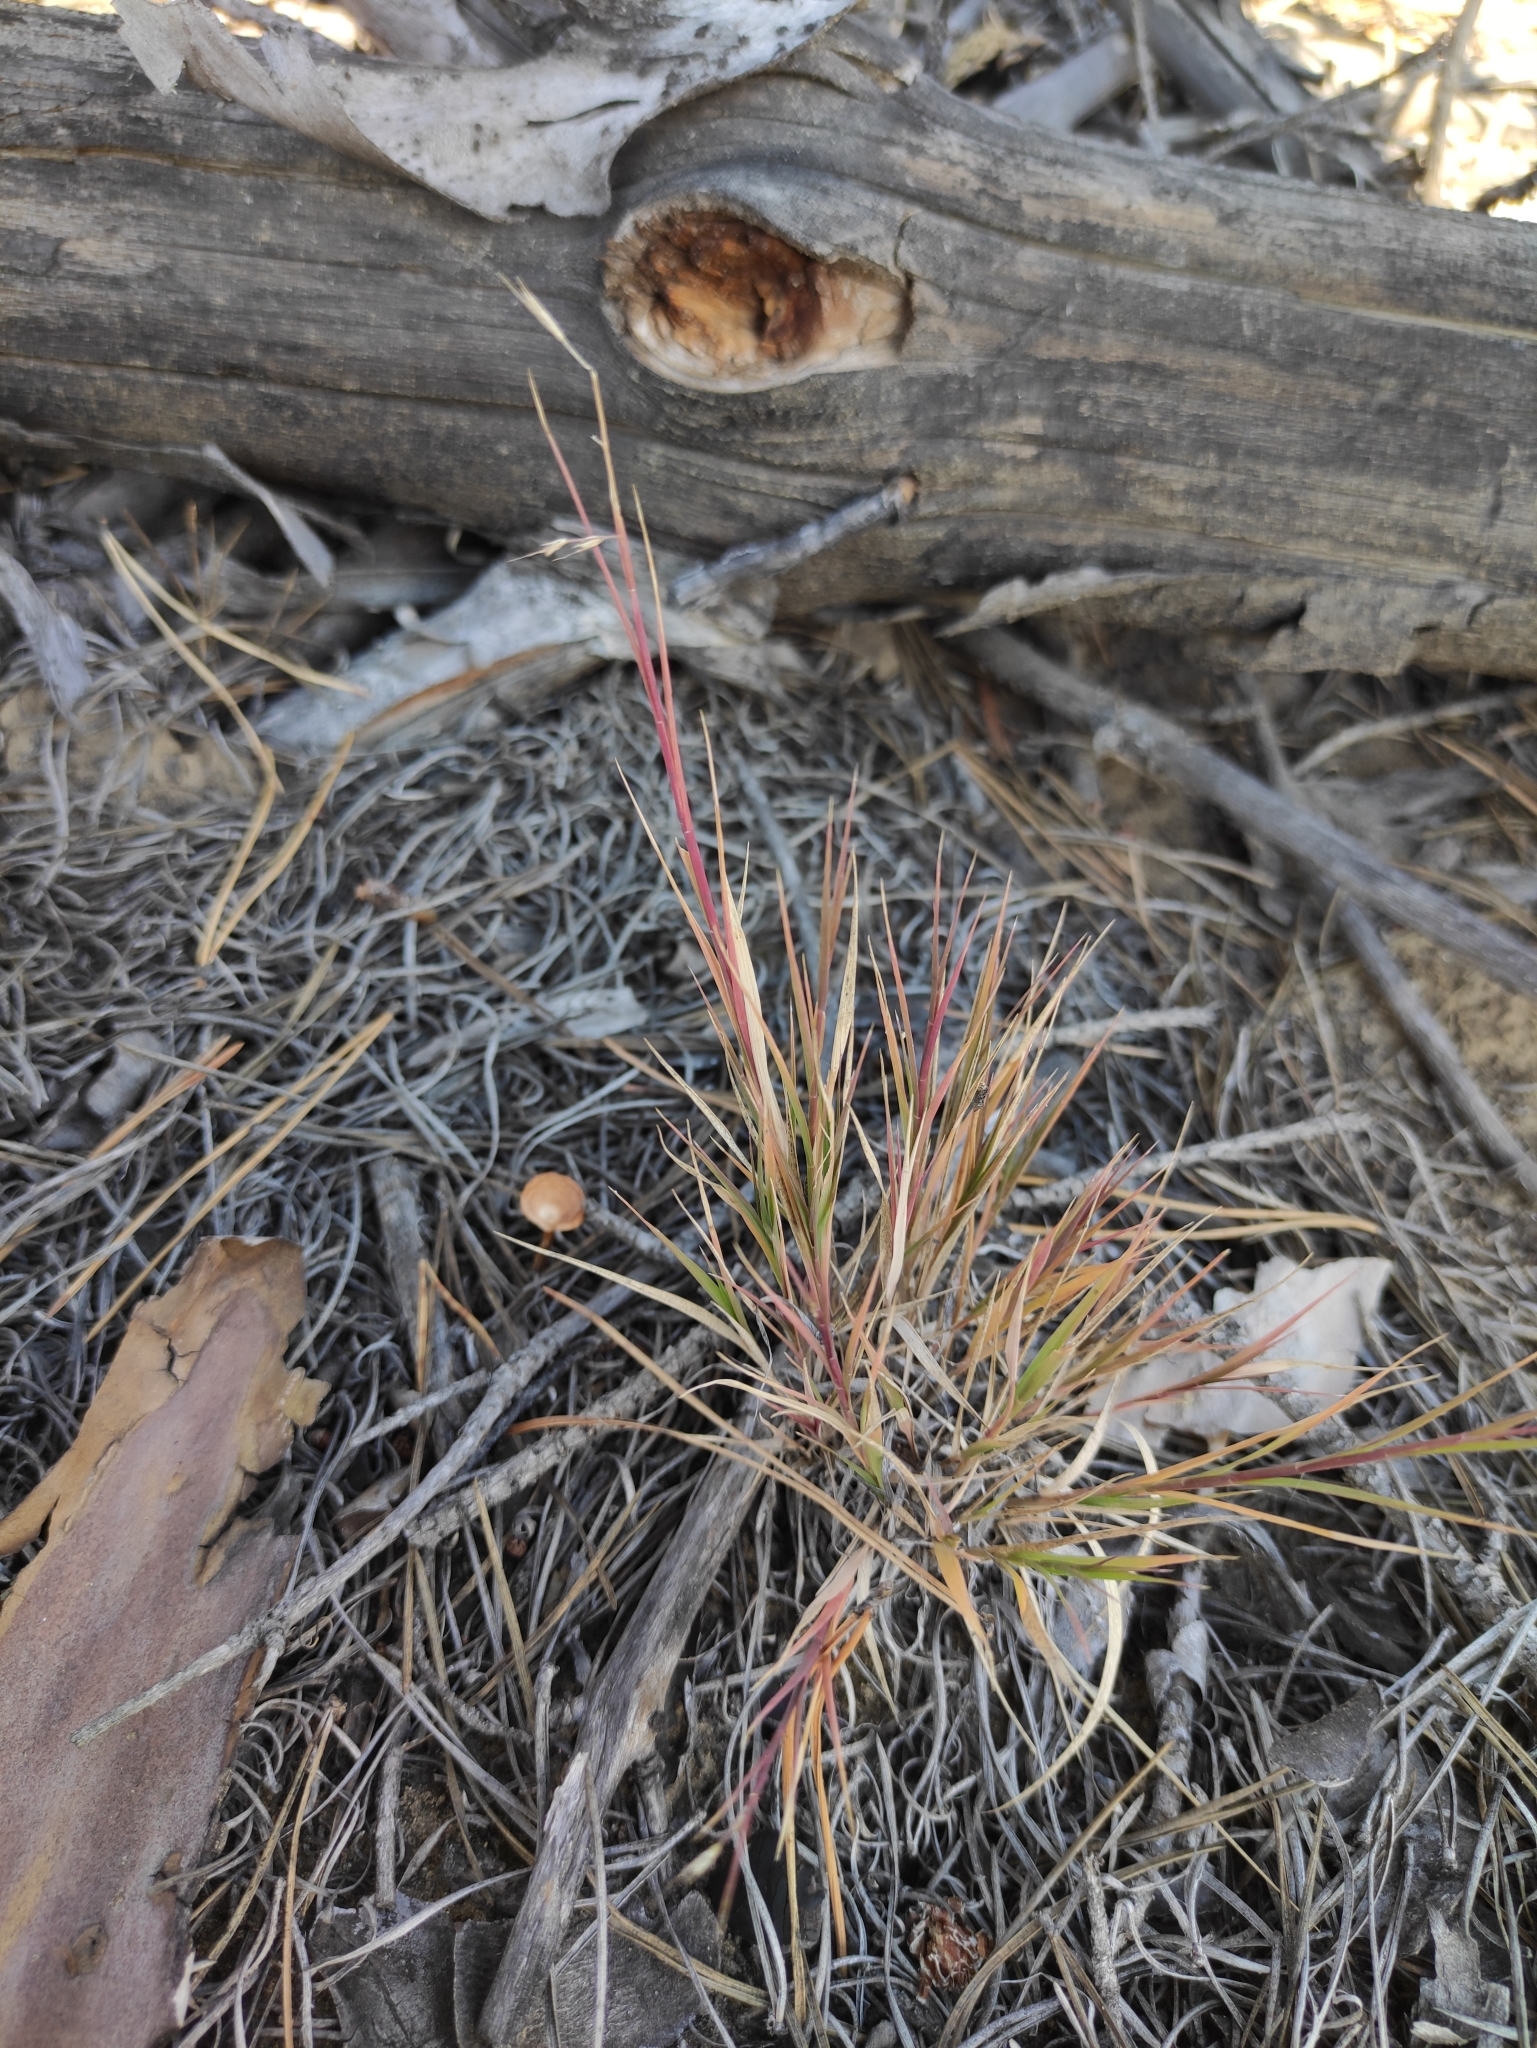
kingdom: Plantae
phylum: Tracheophyta
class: Liliopsida
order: Poales
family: Poaceae
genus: Cleistogenes
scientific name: Cleistogenes squarrosa
